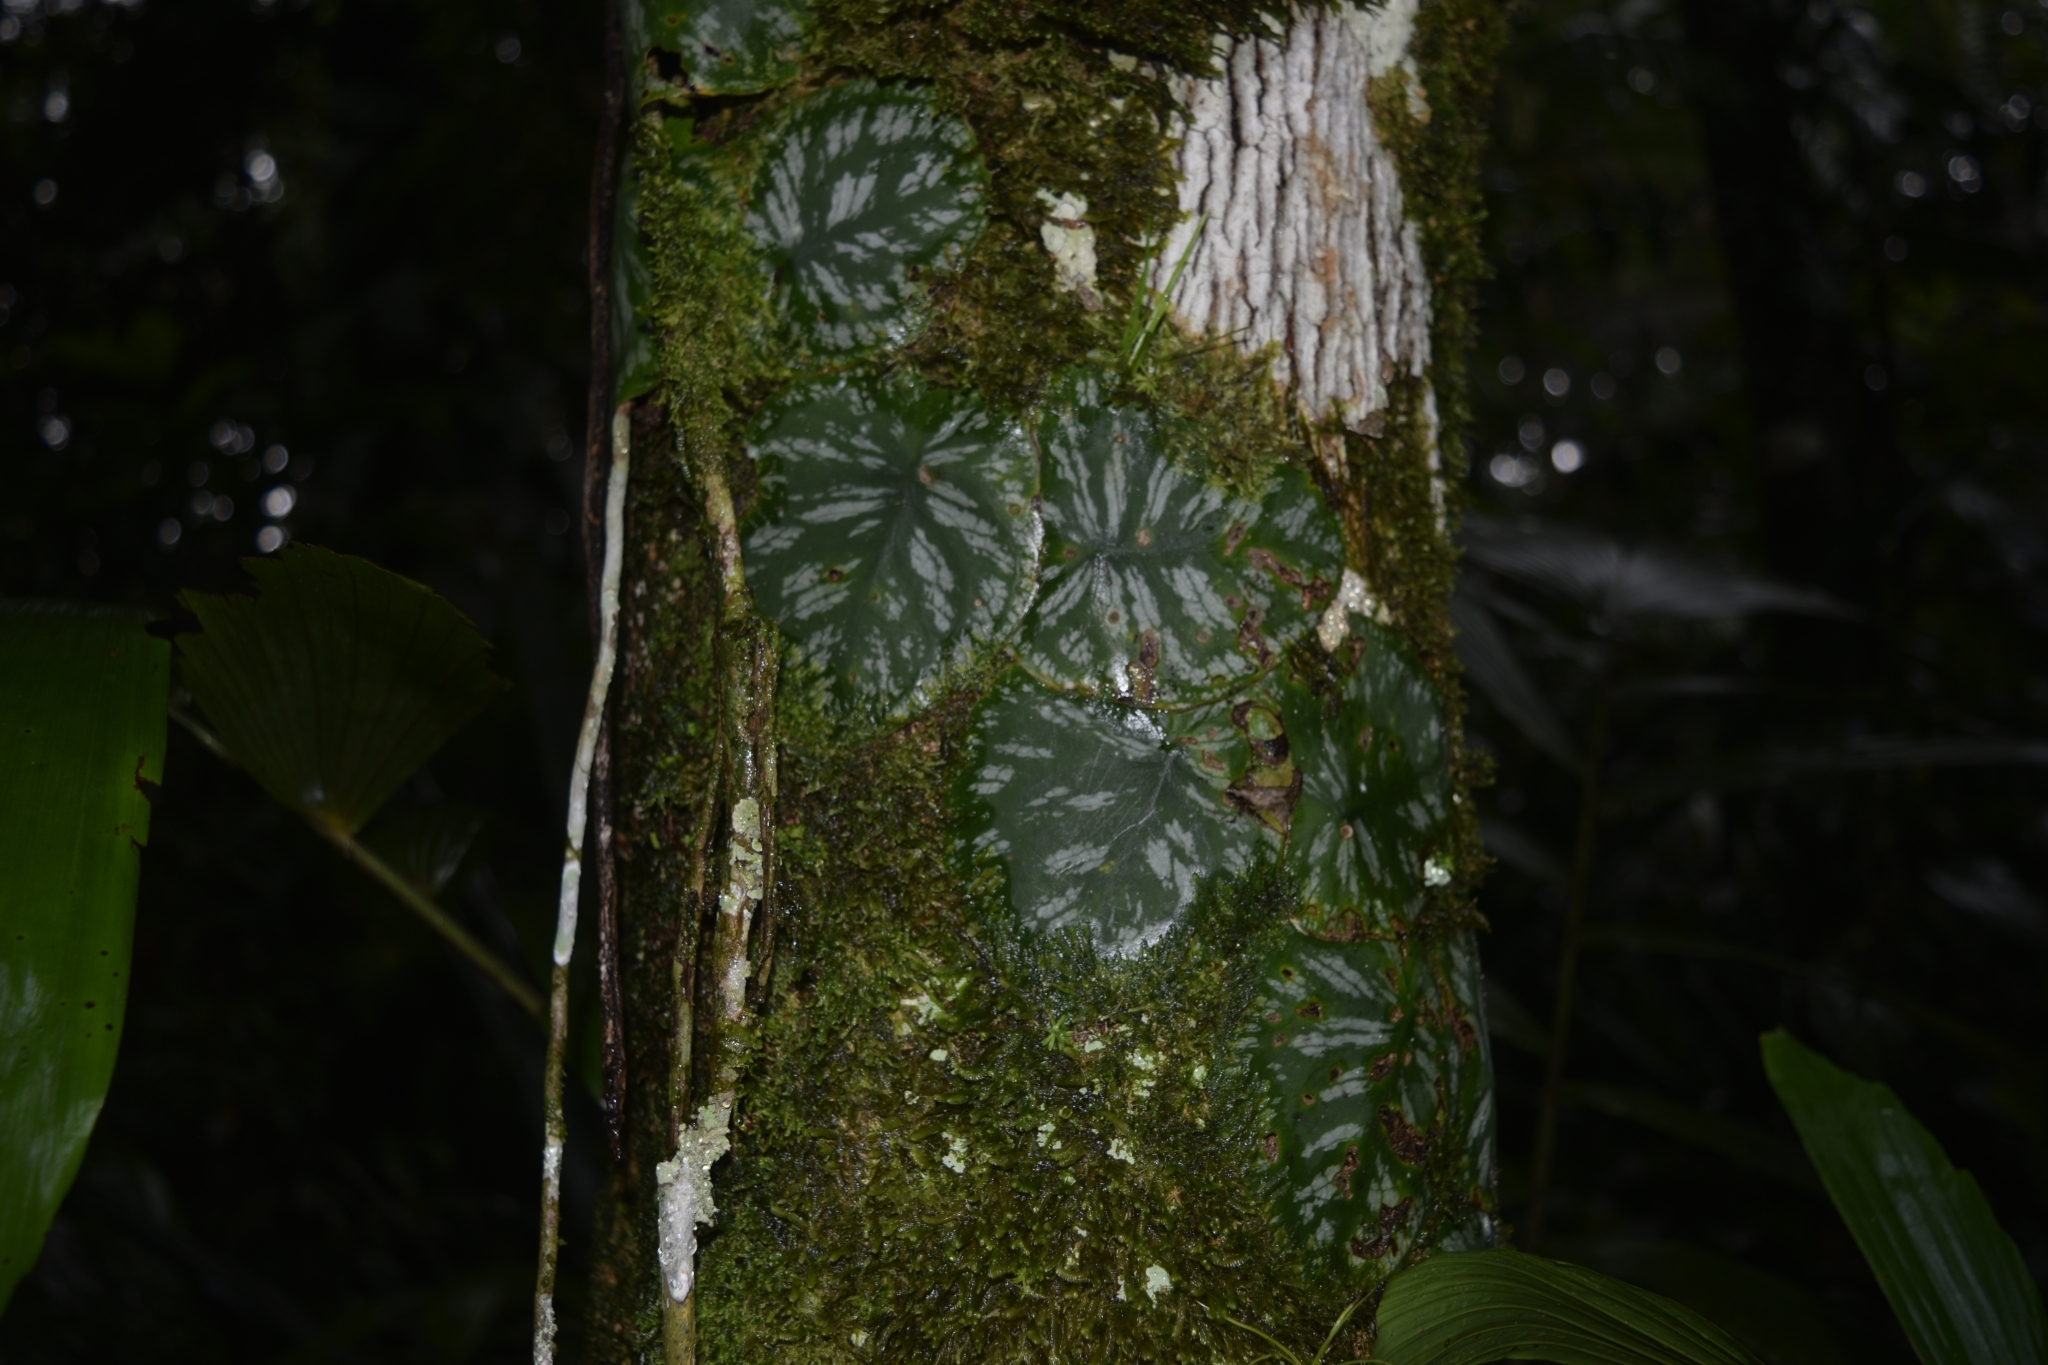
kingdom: Plantae
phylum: Tracheophyta
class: Liliopsida
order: Alismatales
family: Araceae
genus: Monstera
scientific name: Monstera tuberculata
